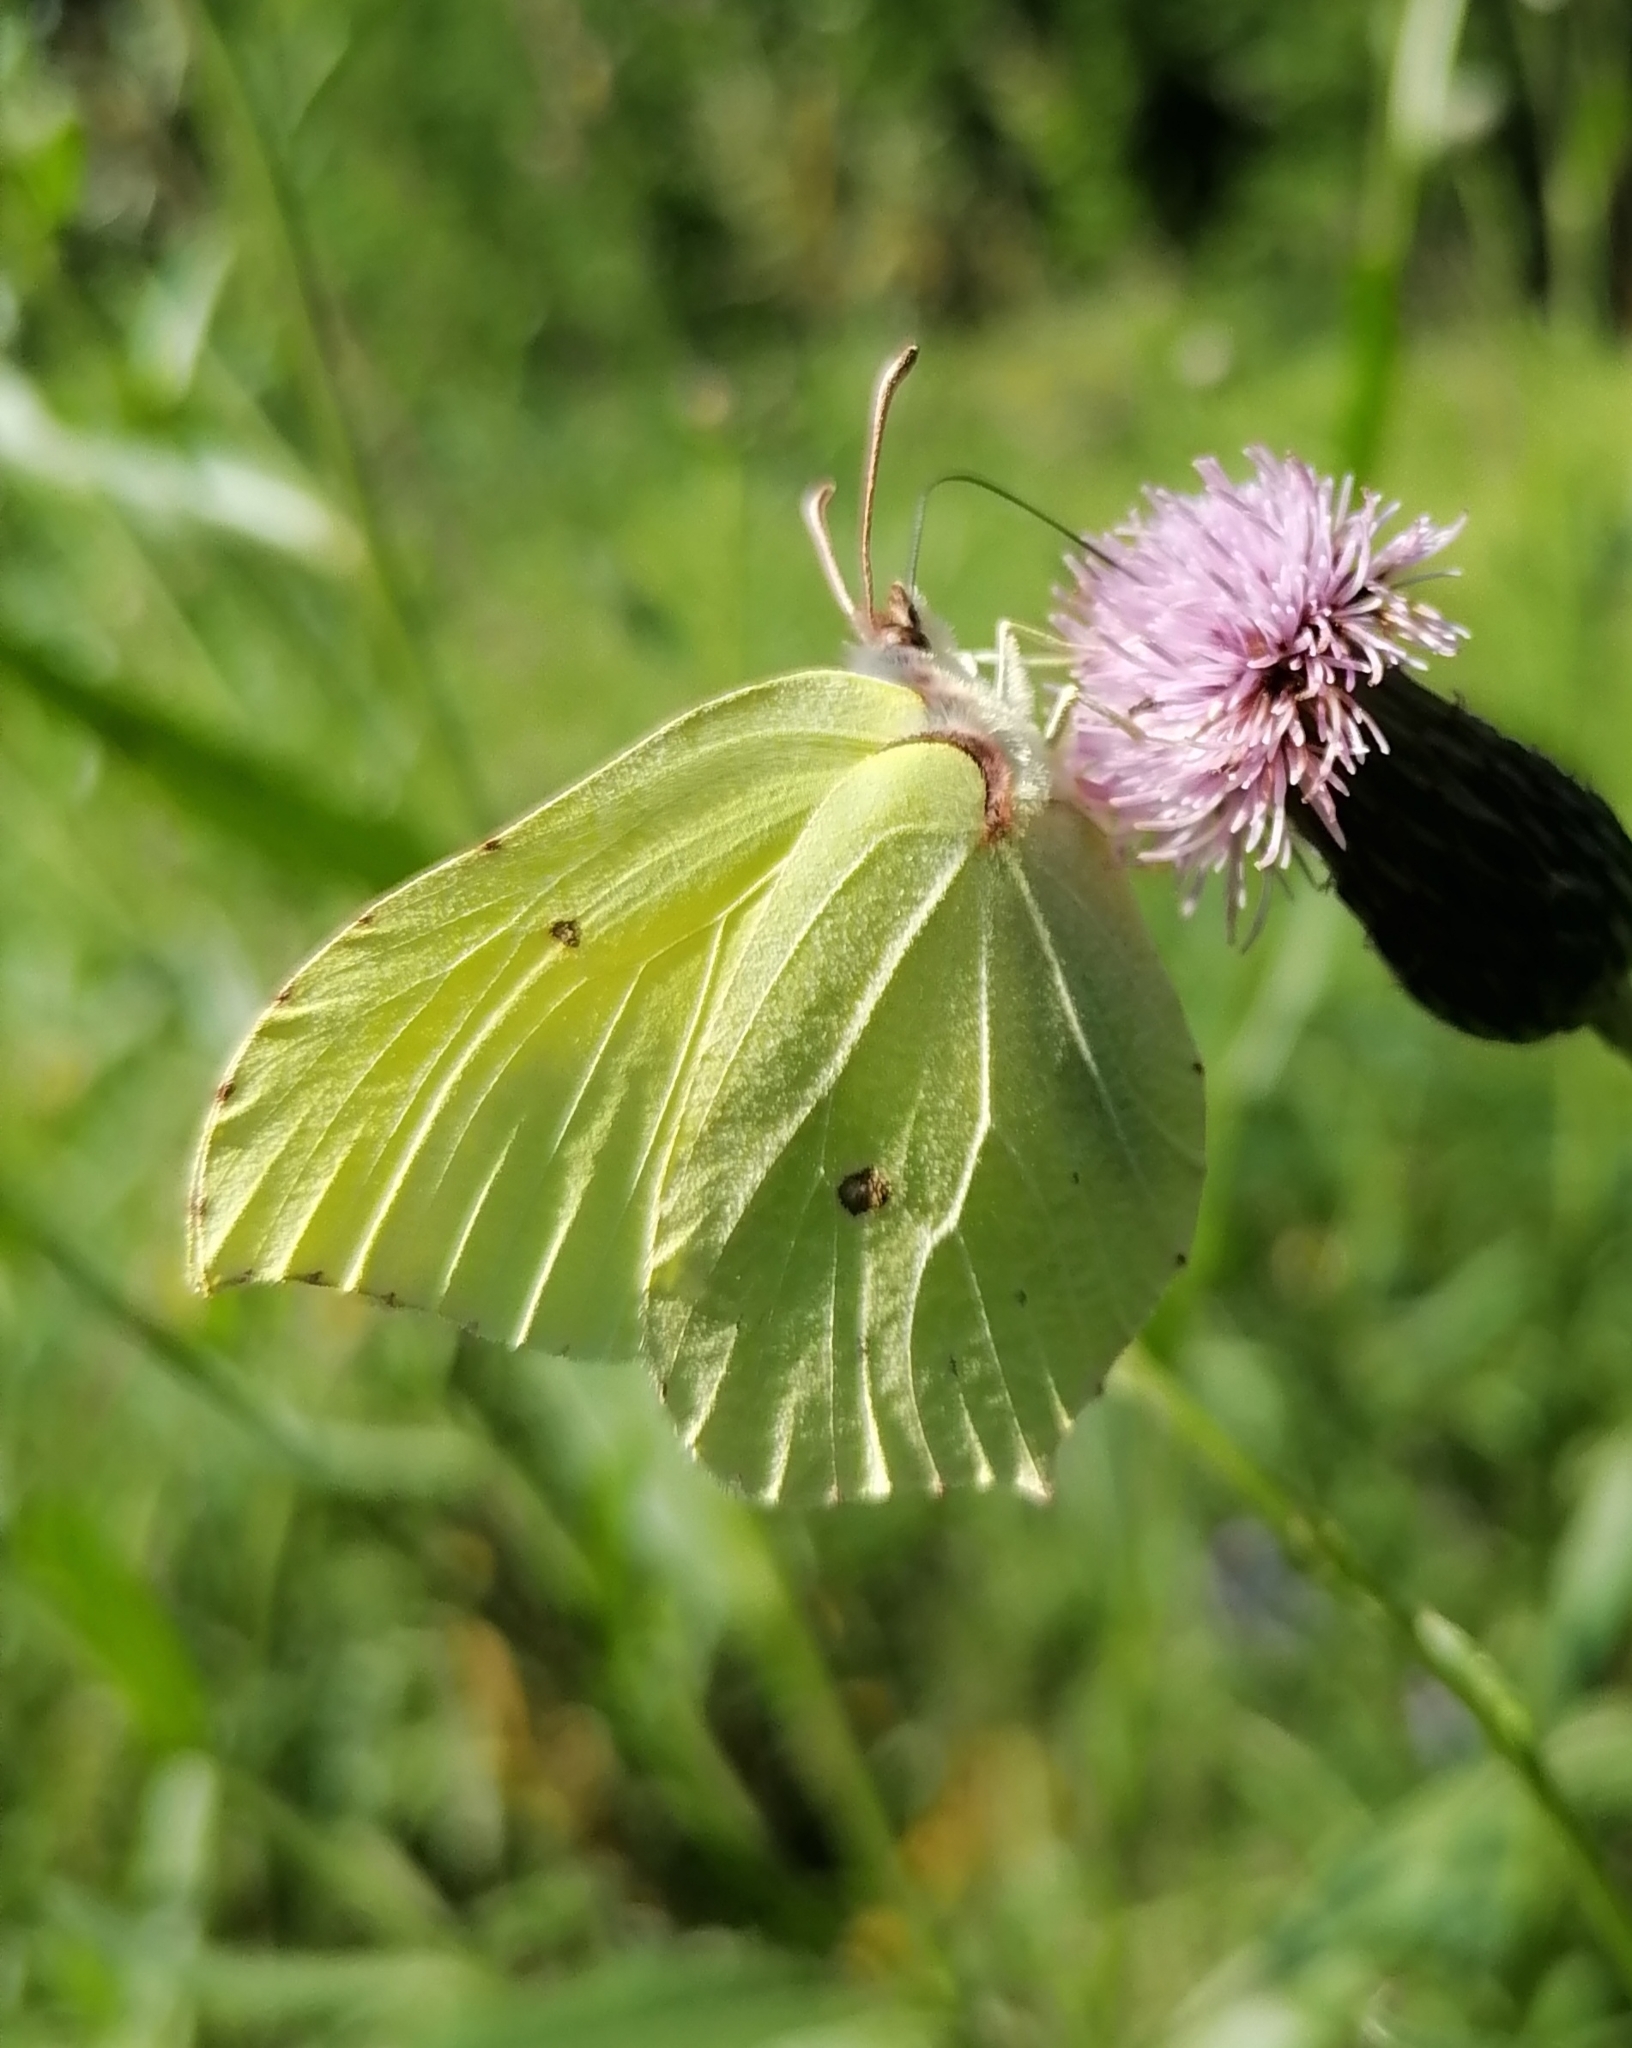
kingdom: Animalia
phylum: Arthropoda
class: Insecta
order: Lepidoptera
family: Pieridae
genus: Gonepteryx
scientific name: Gonepteryx rhamni
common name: Brimstone
